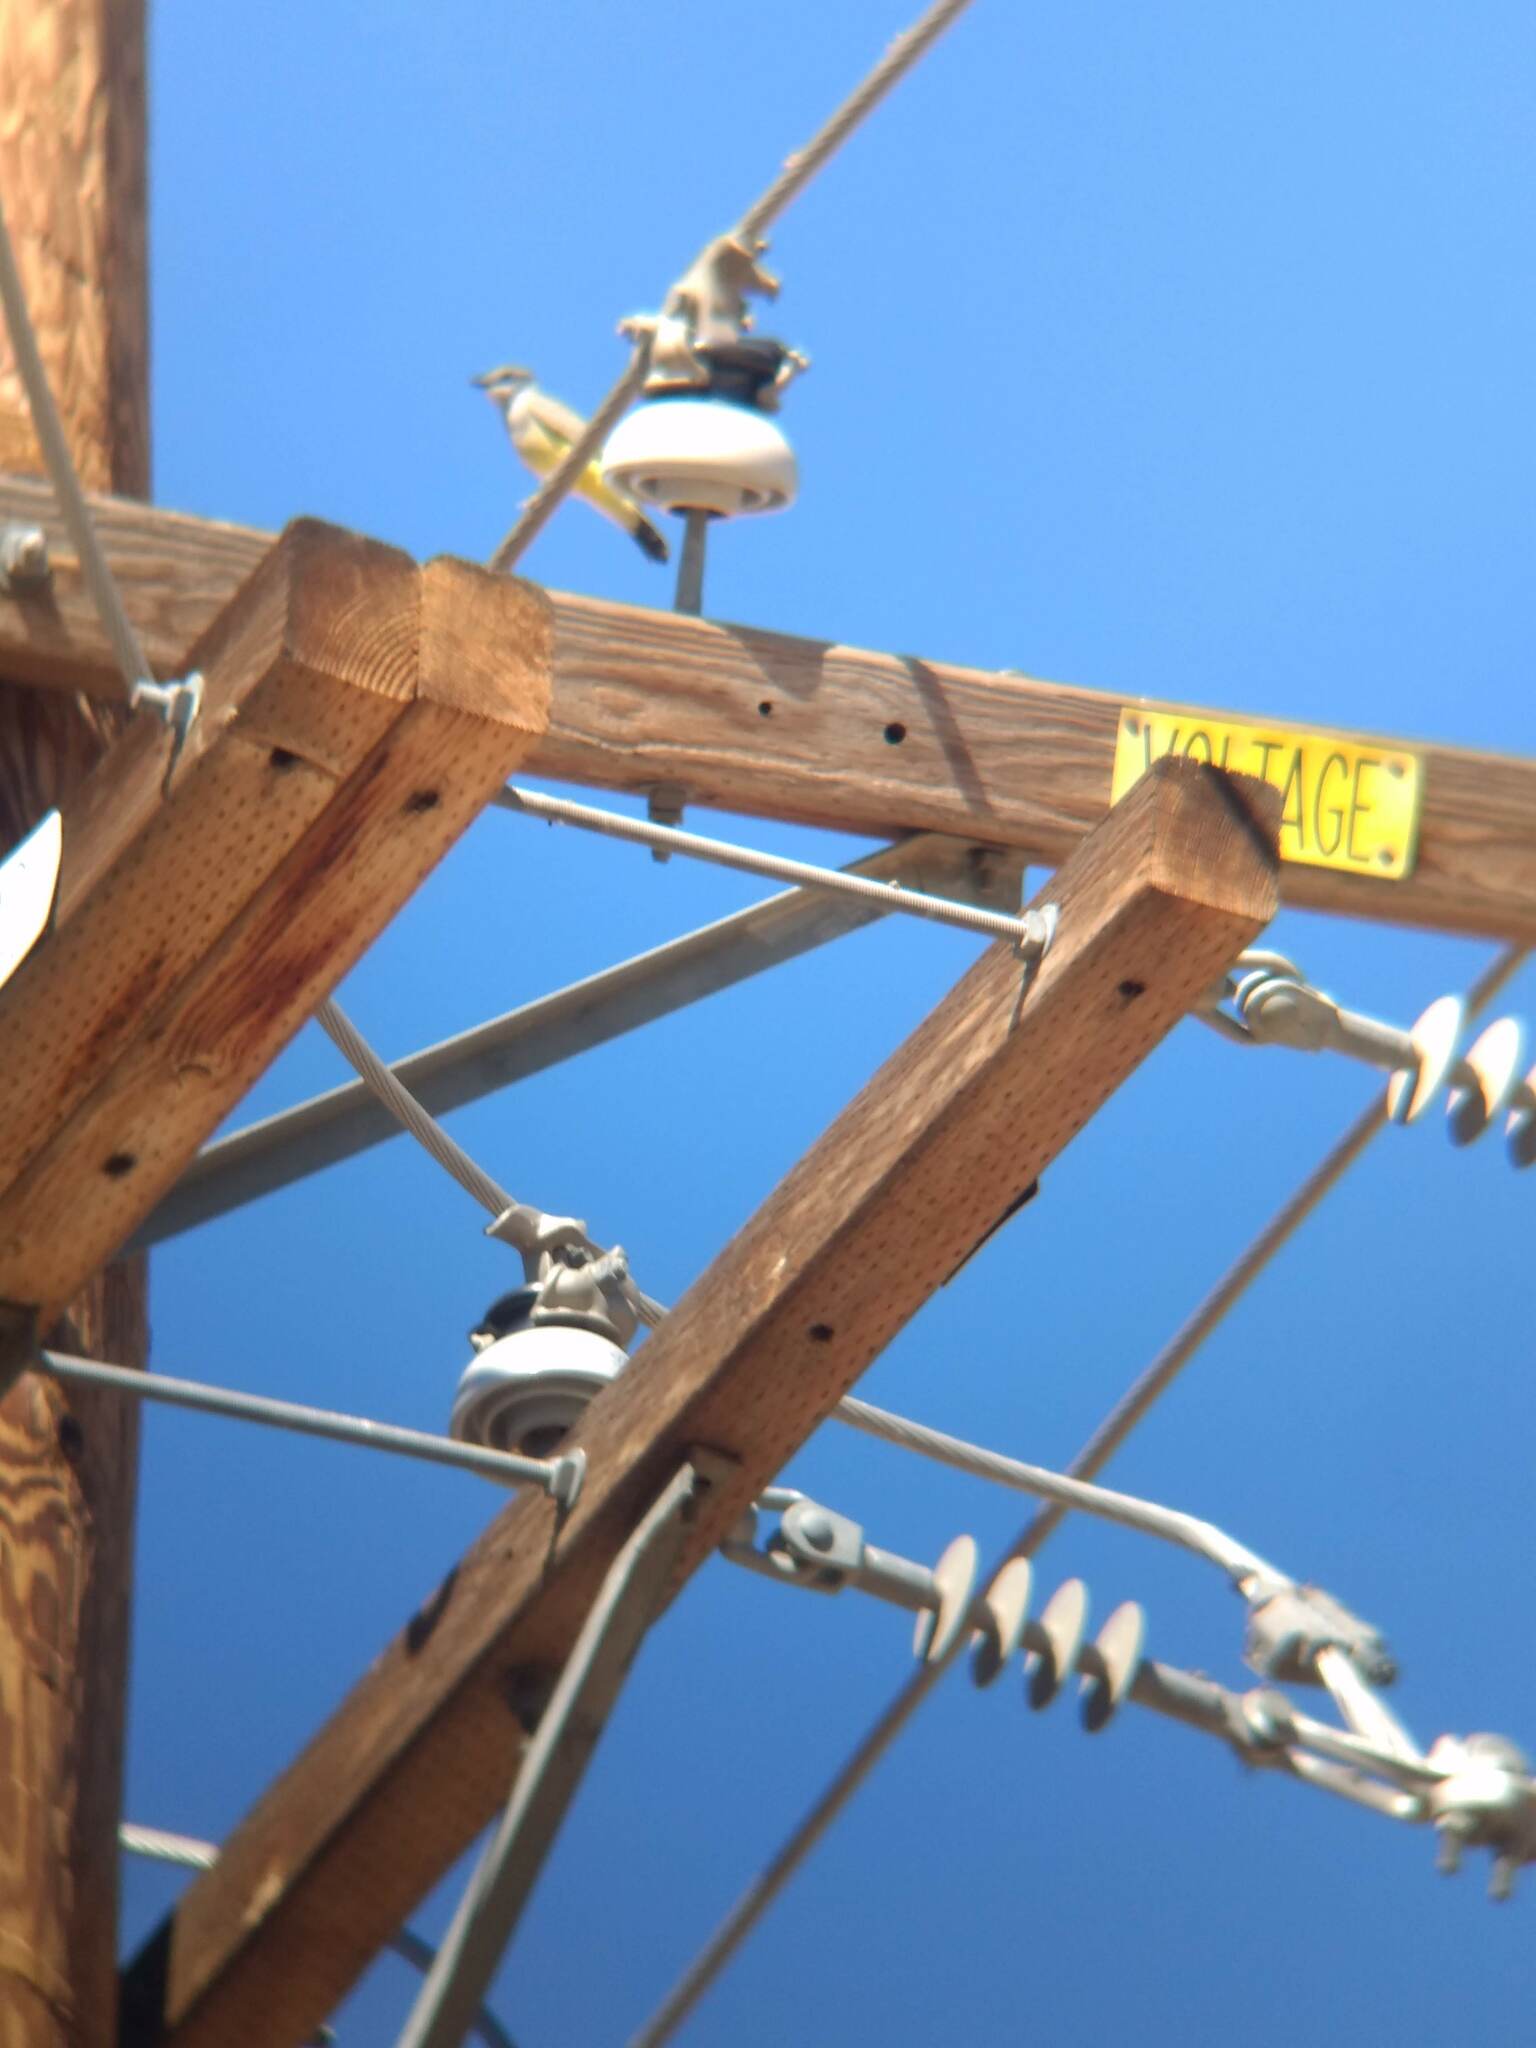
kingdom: Animalia
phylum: Chordata
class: Aves
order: Passeriformes
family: Tyrannidae
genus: Tyrannus
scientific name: Tyrannus vociferans
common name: Cassin's kingbird
